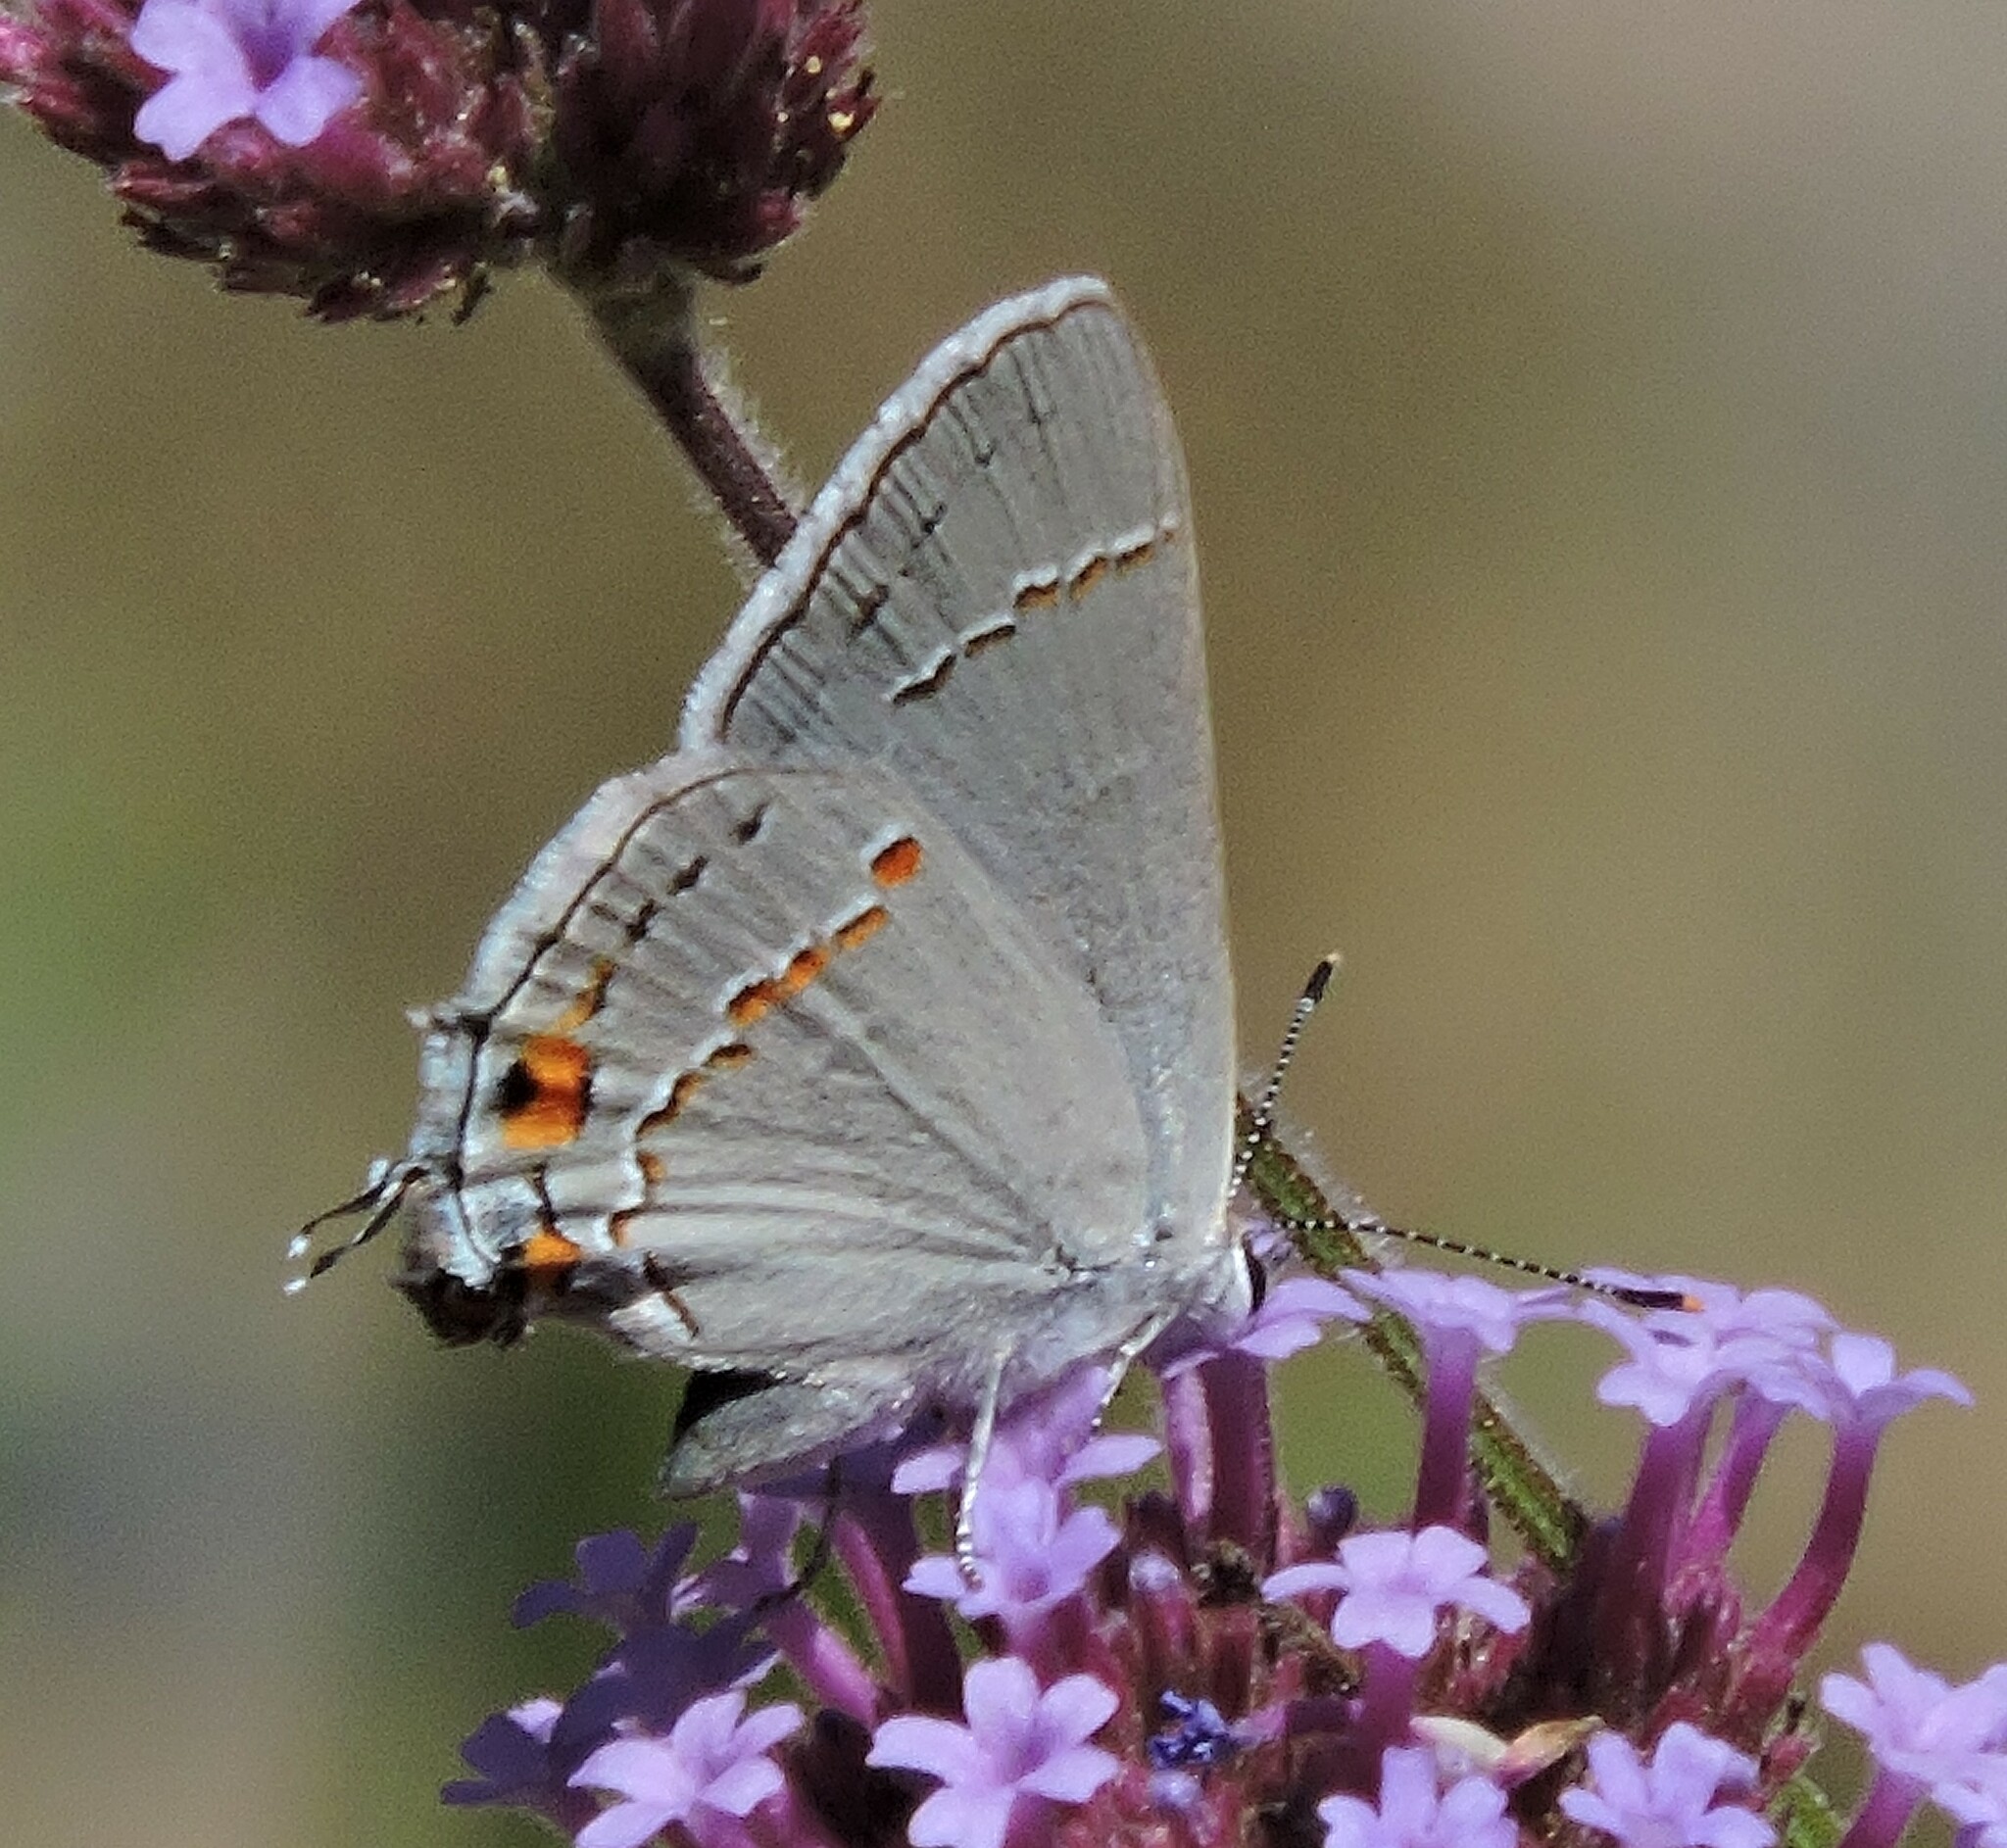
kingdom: Animalia
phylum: Arthropoda
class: Insecta
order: Lepidoptera
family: Lycaenidae
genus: Strymon
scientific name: Strymon melinus
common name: Gray hairstreak
